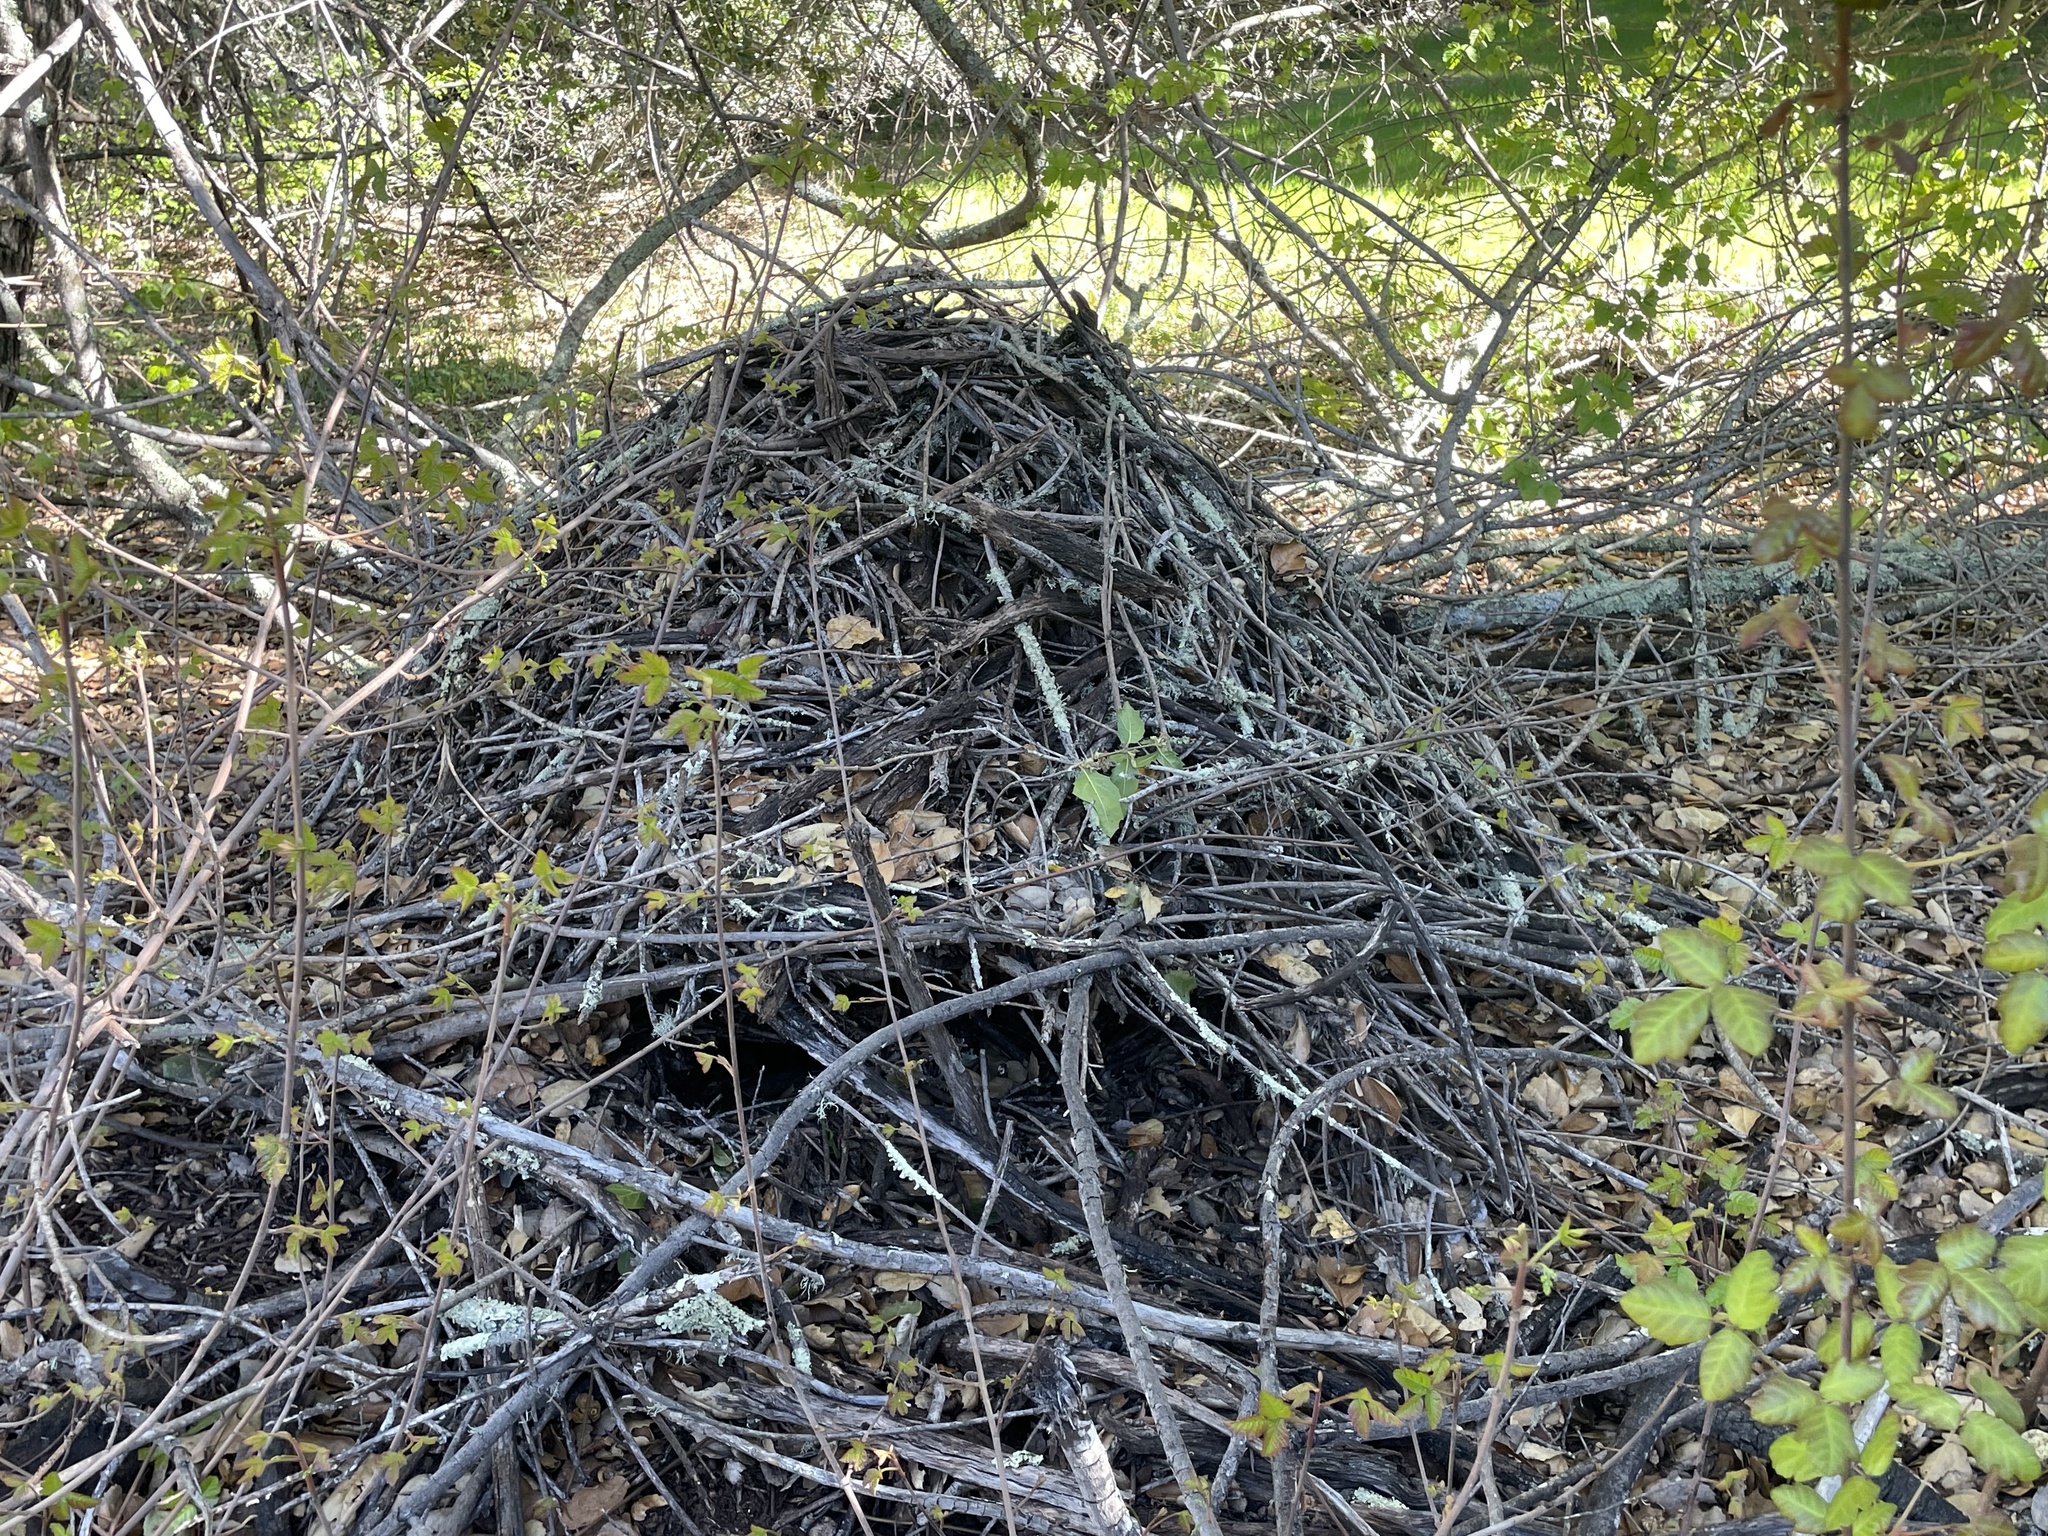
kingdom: Animalia
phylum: Chordata
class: Mammalia
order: Rodentia
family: Cricetidae
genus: Neotoma
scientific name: Neotoma fuscipes
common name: Dusky-footed woodrat
